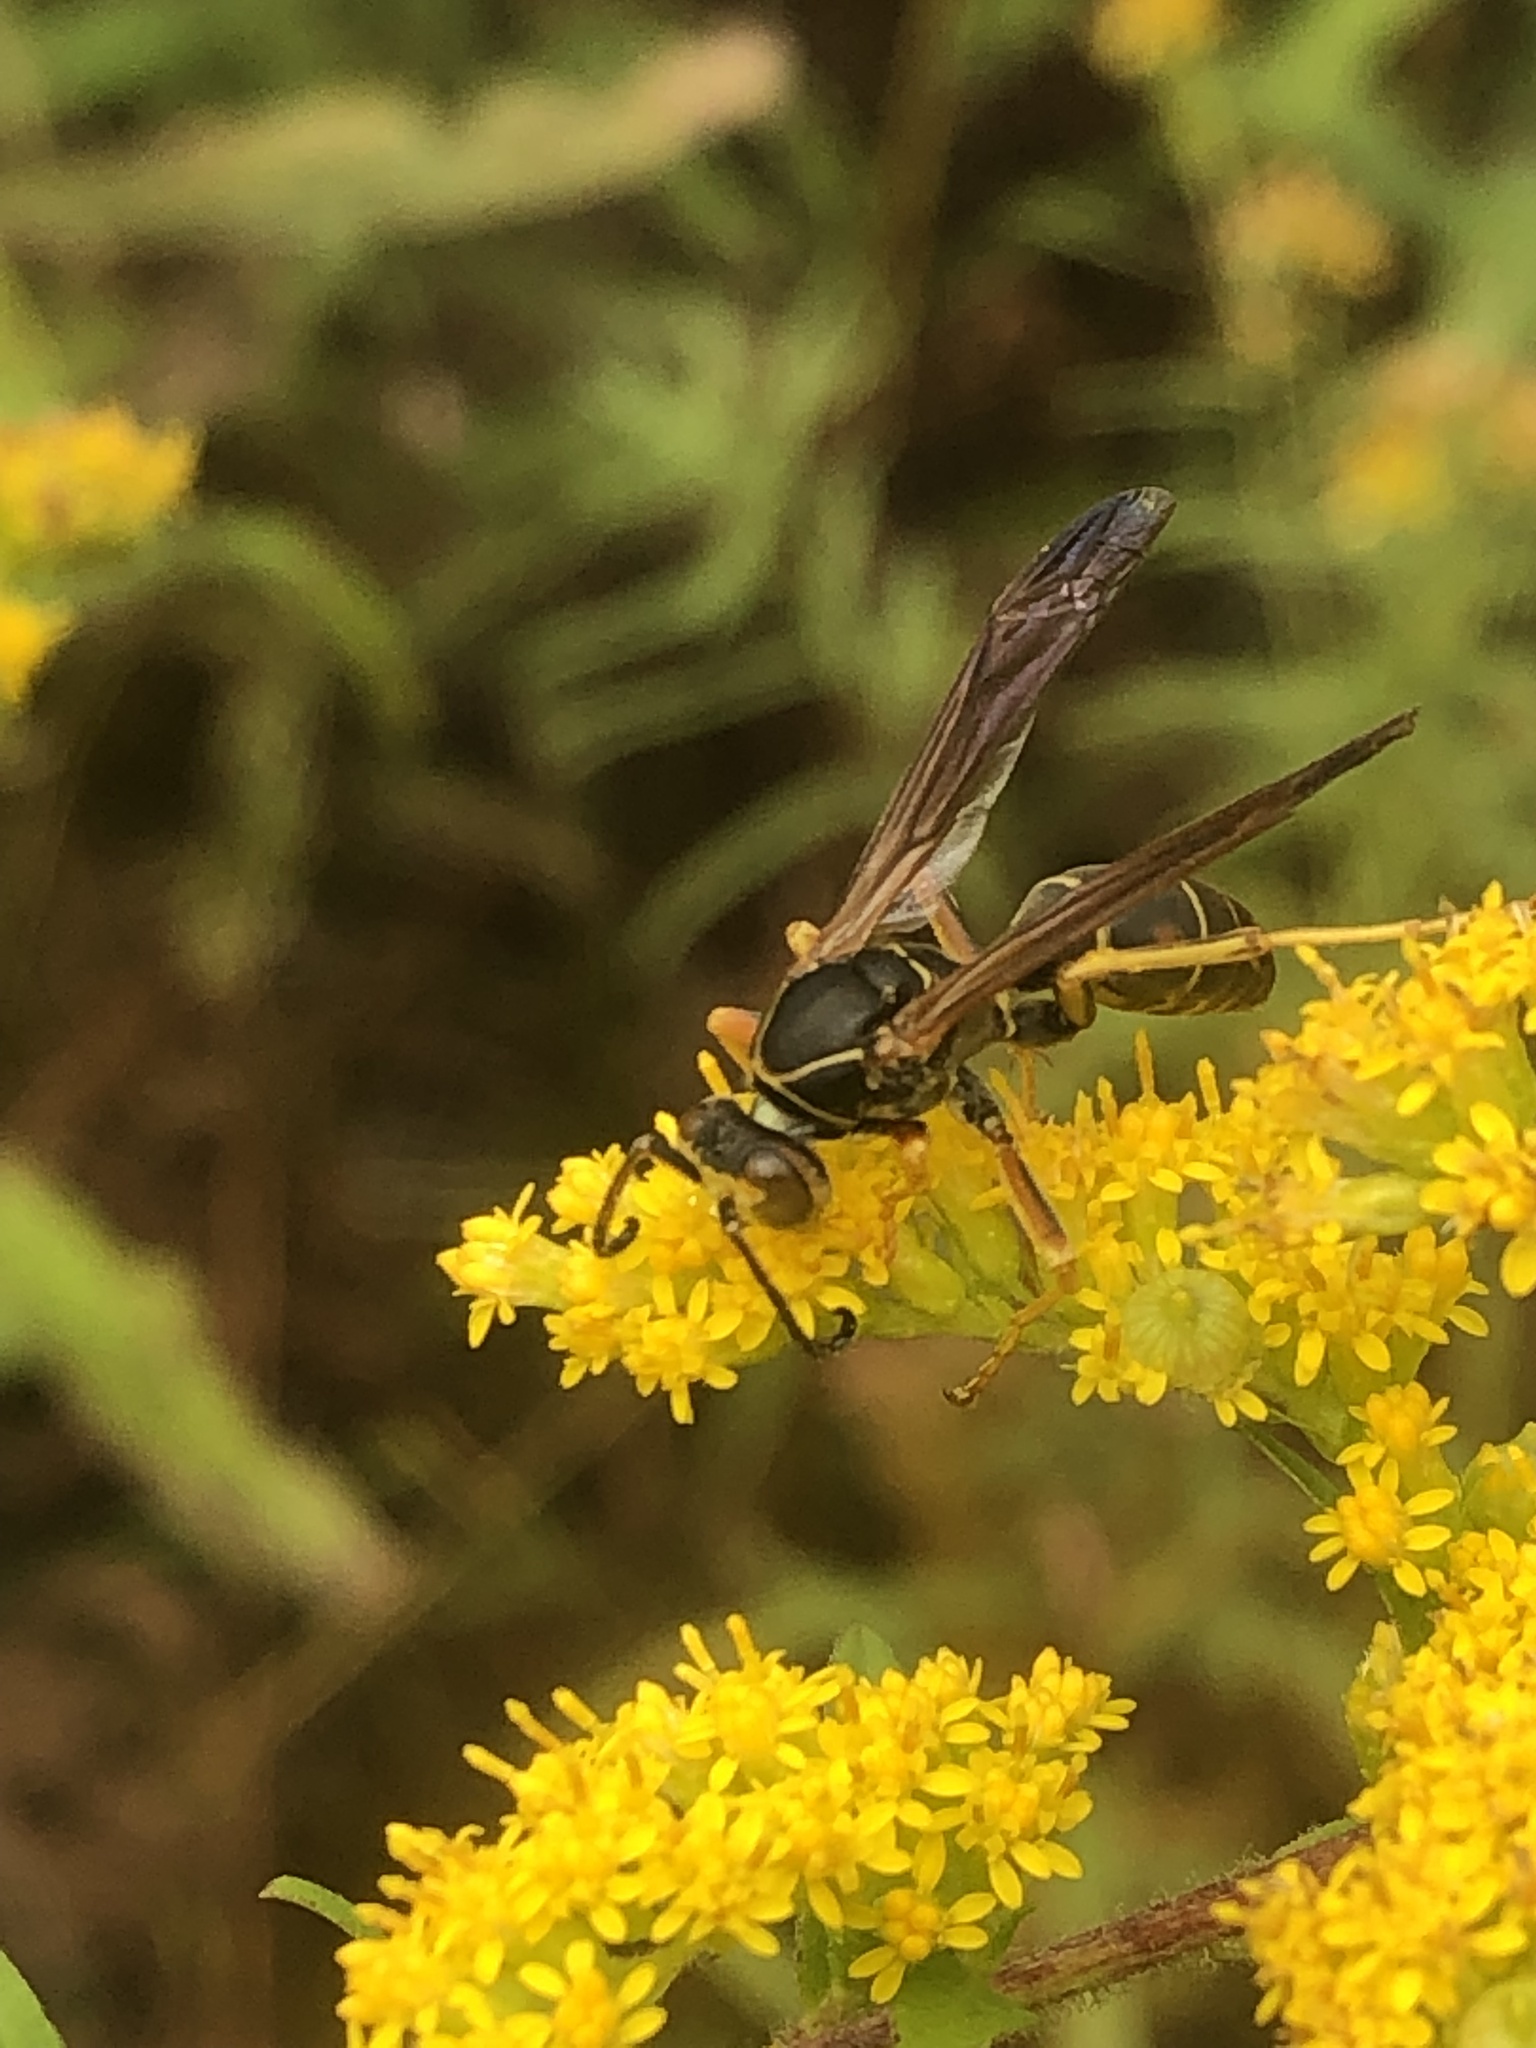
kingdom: Animalia
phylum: Arthropoda
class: Insecta
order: Hymenoptera
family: Eumenidae
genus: Polistes
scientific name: Polistes fuscatus
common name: Dark paper wasp
